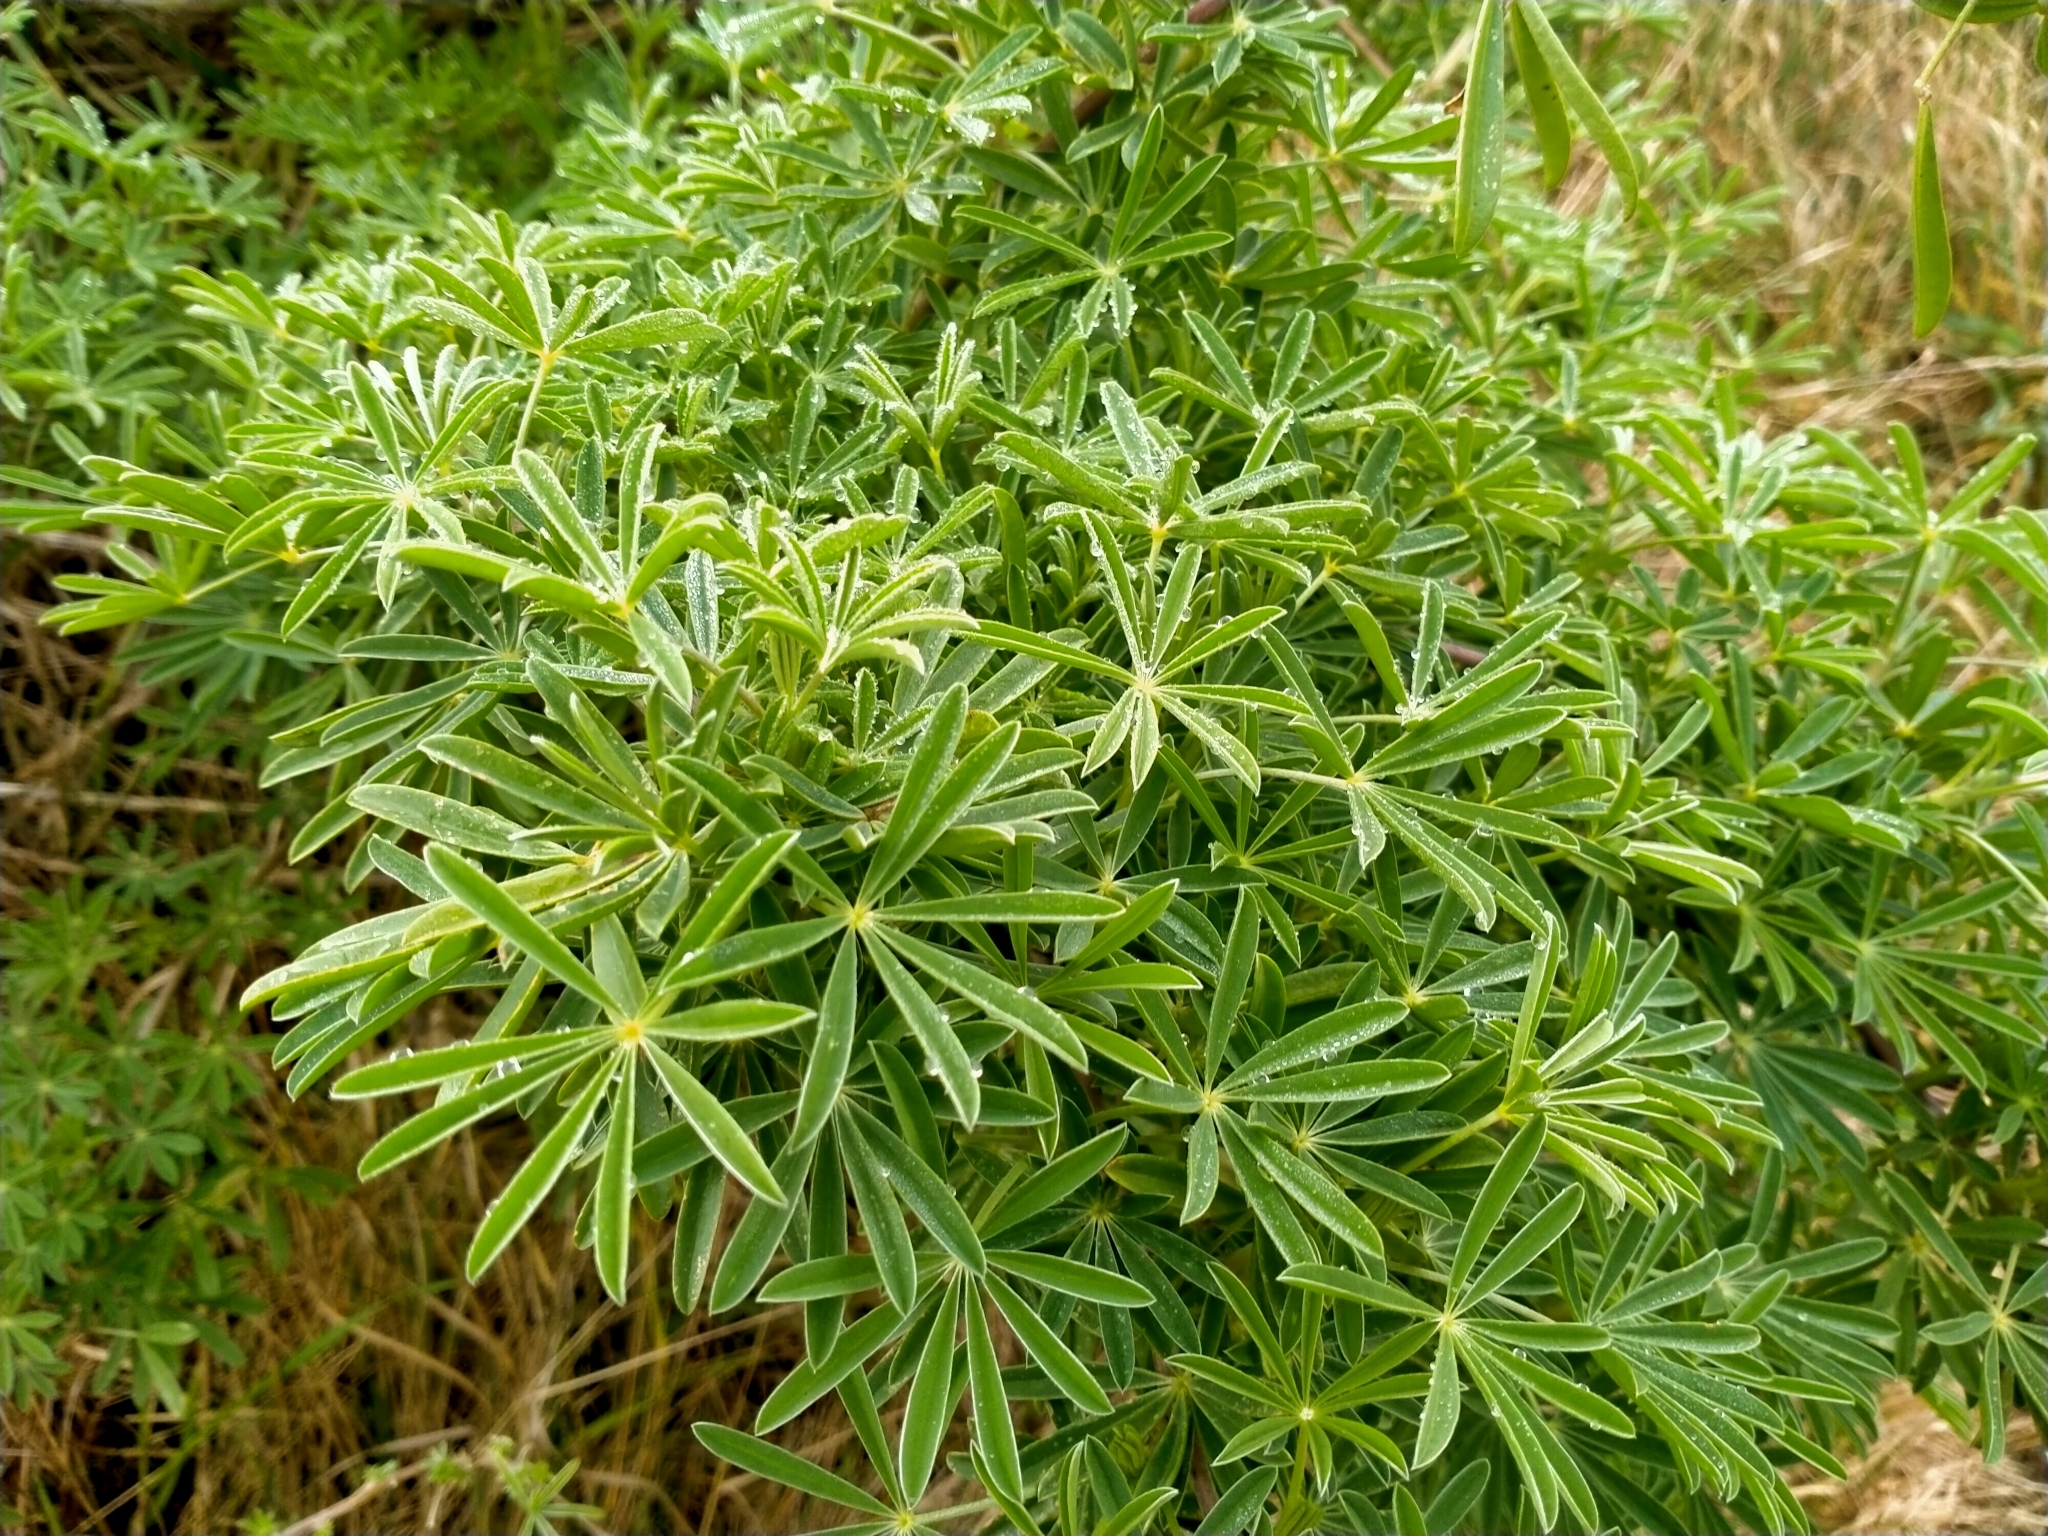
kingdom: Plantae
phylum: Tracheophyta
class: Magnoliopsida
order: Fabales
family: Fabaceae
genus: Lupinus
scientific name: Lupinus arboreus
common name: Yellow bush lupine
